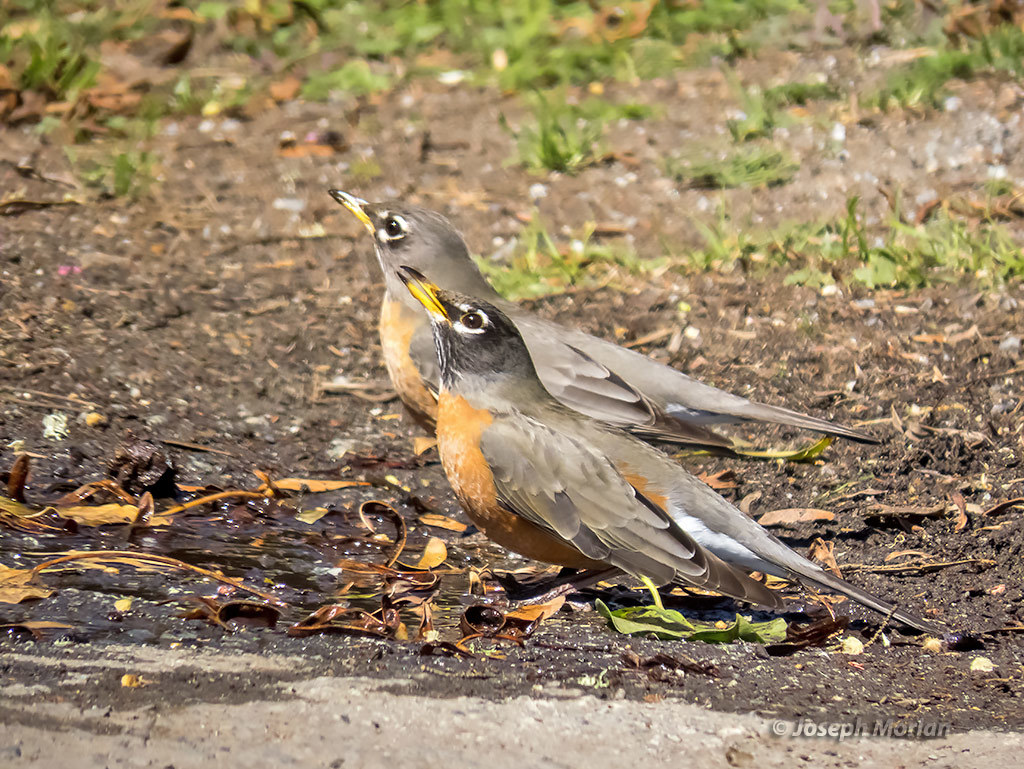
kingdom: Animalia
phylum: Chordata
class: Aves
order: Passeriformes
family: Turdidae
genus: Turdus
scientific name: Turdus migratorius
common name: American robin
